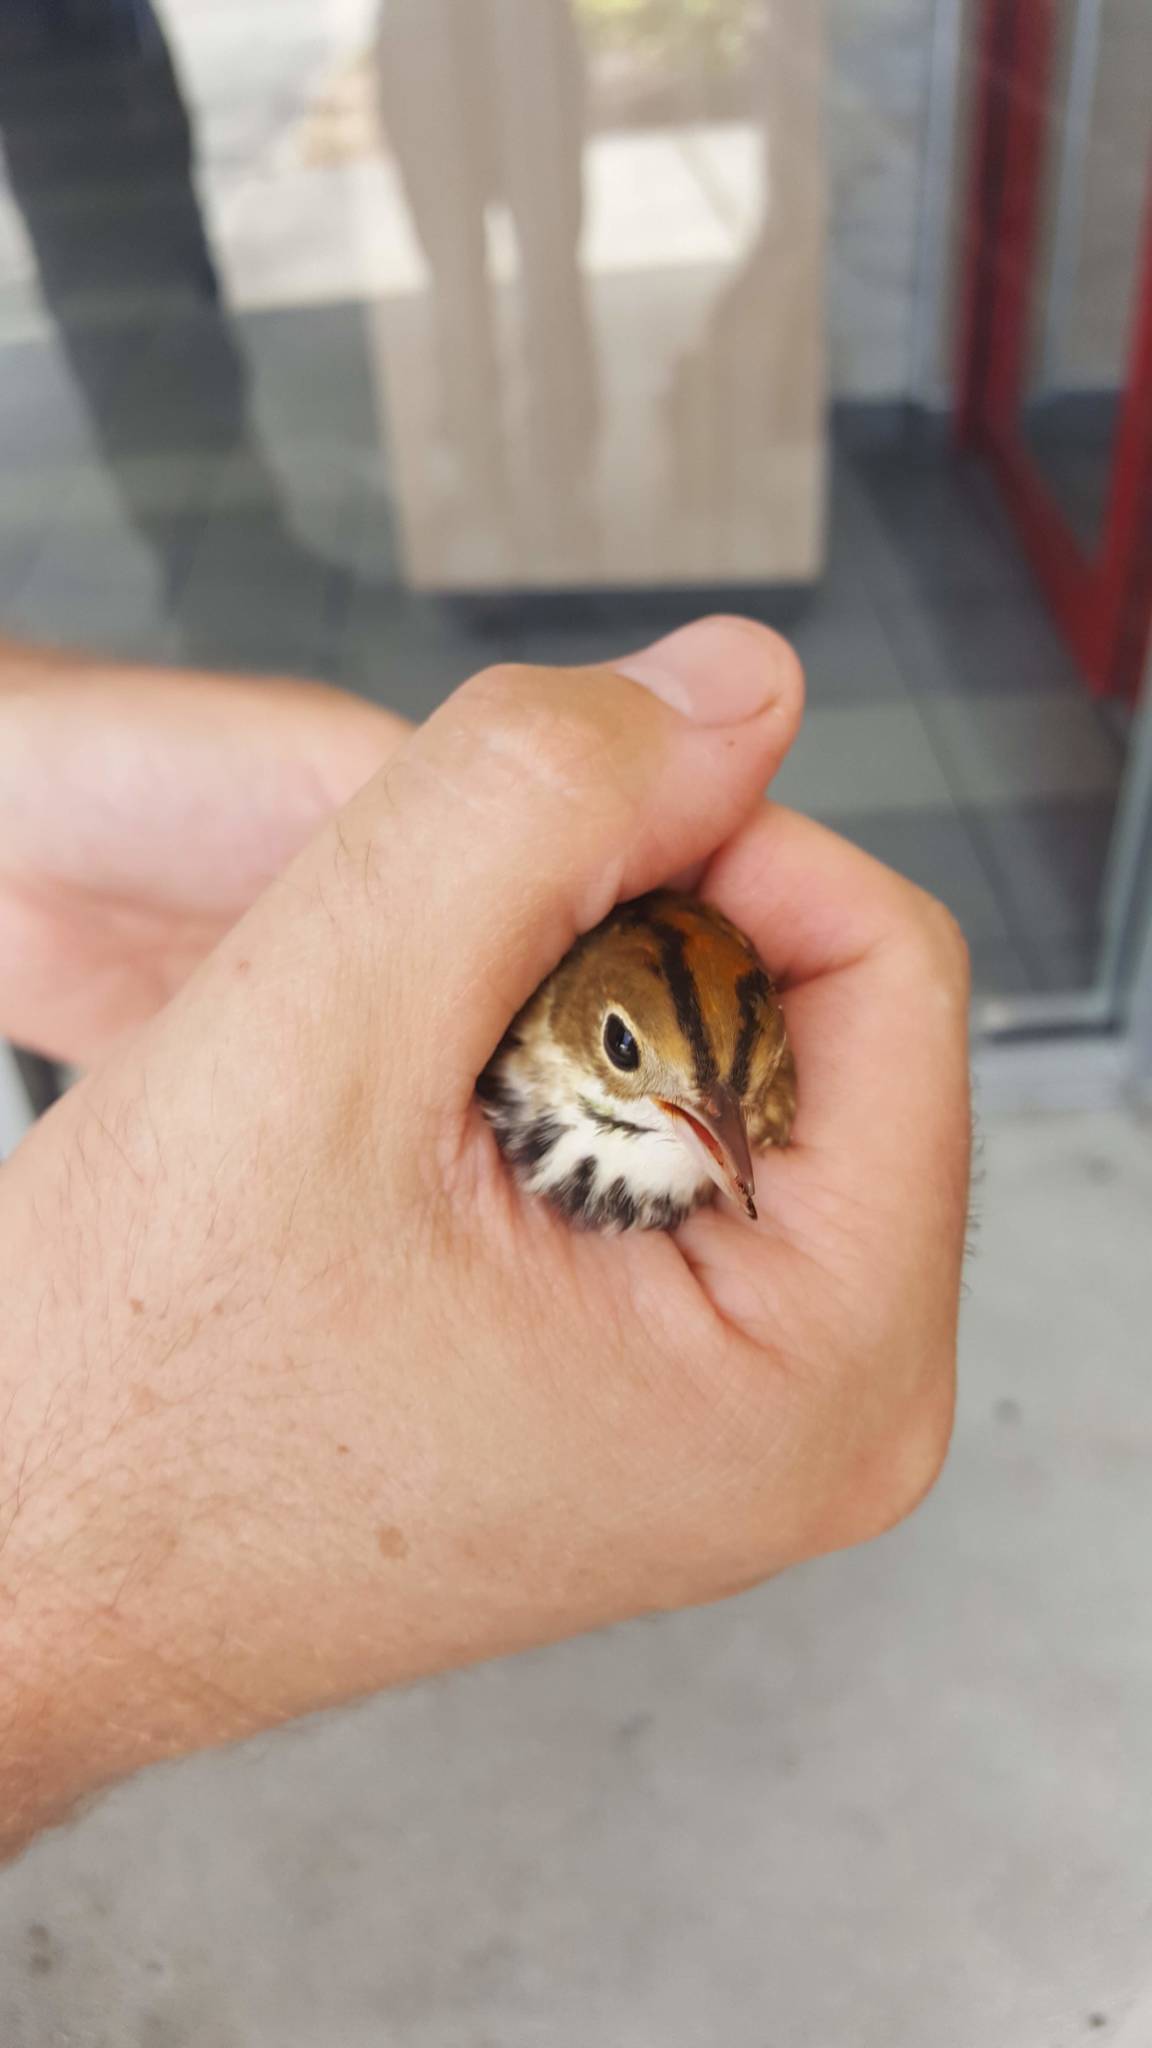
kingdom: Animalia
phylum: Chordata
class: Aves
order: Passeriformes
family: Parulidae
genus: Seiurus
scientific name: Seiurus aurocapilla
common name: Ovenbird
